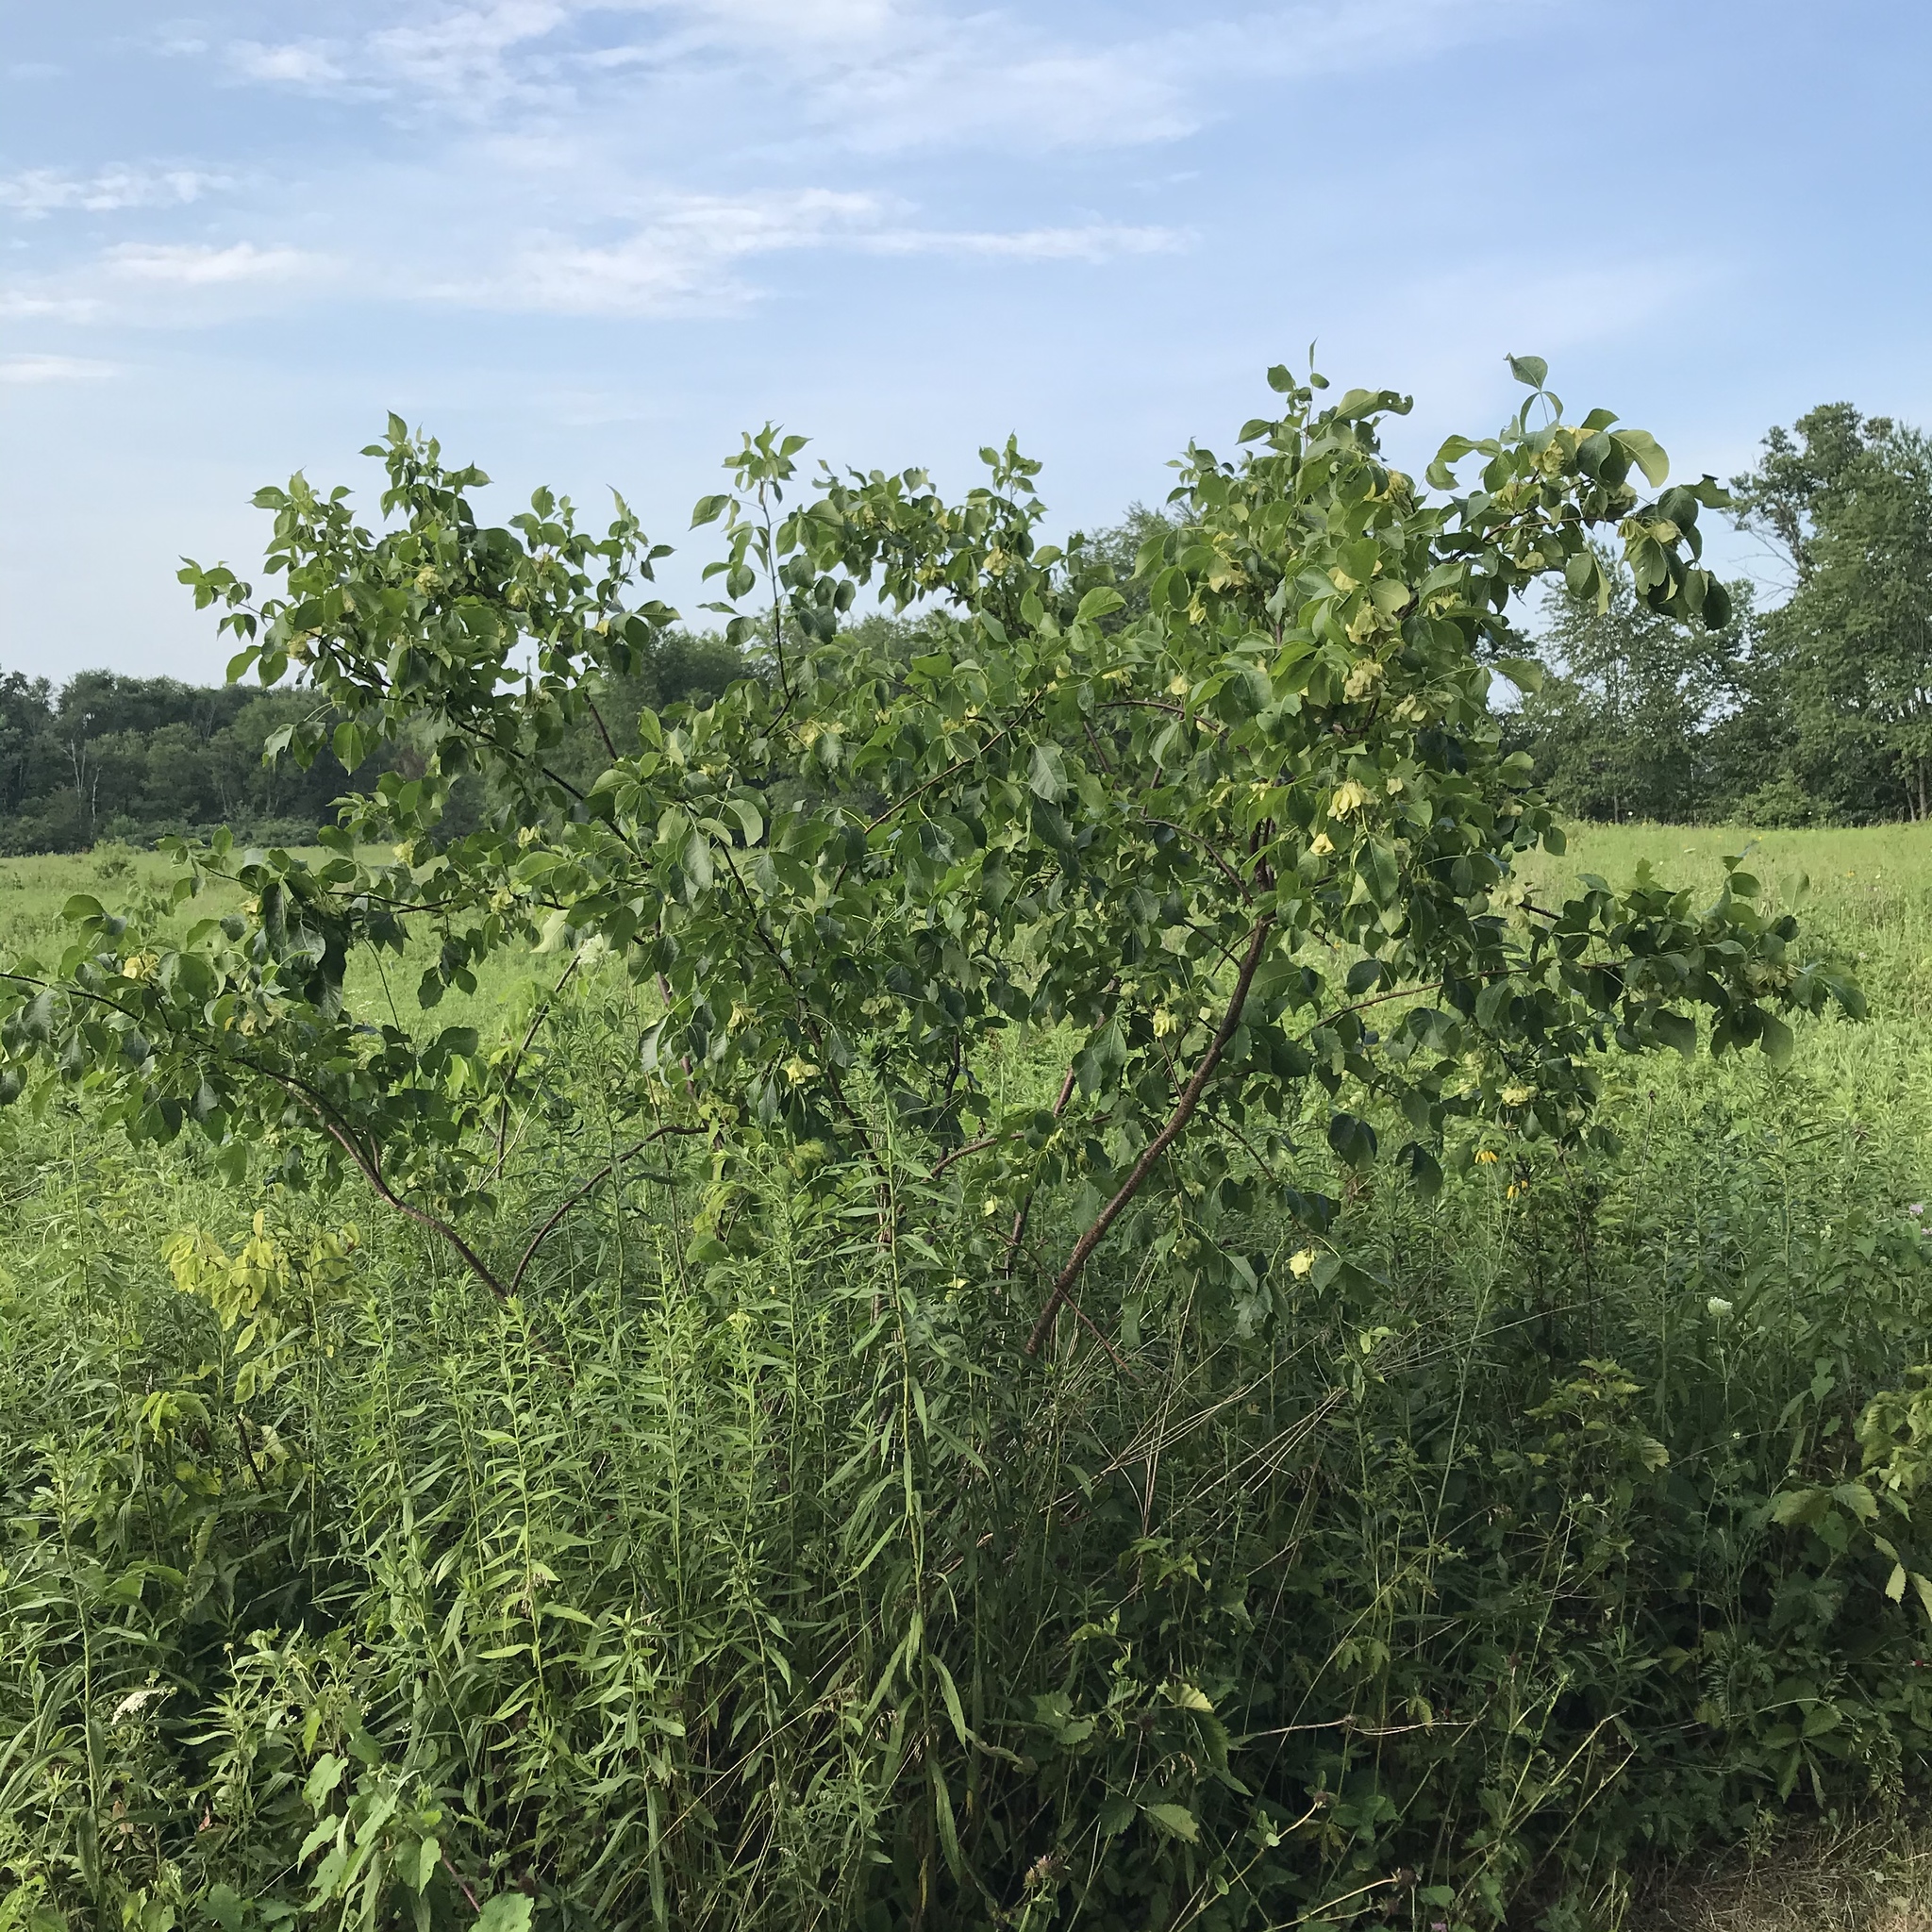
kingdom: Plantae
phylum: Tracheophyta
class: Magnoliopsida
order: Sapindales
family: Rutaceae
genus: Ptelea
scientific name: Ptelea trifoliata
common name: Common hop-tree
